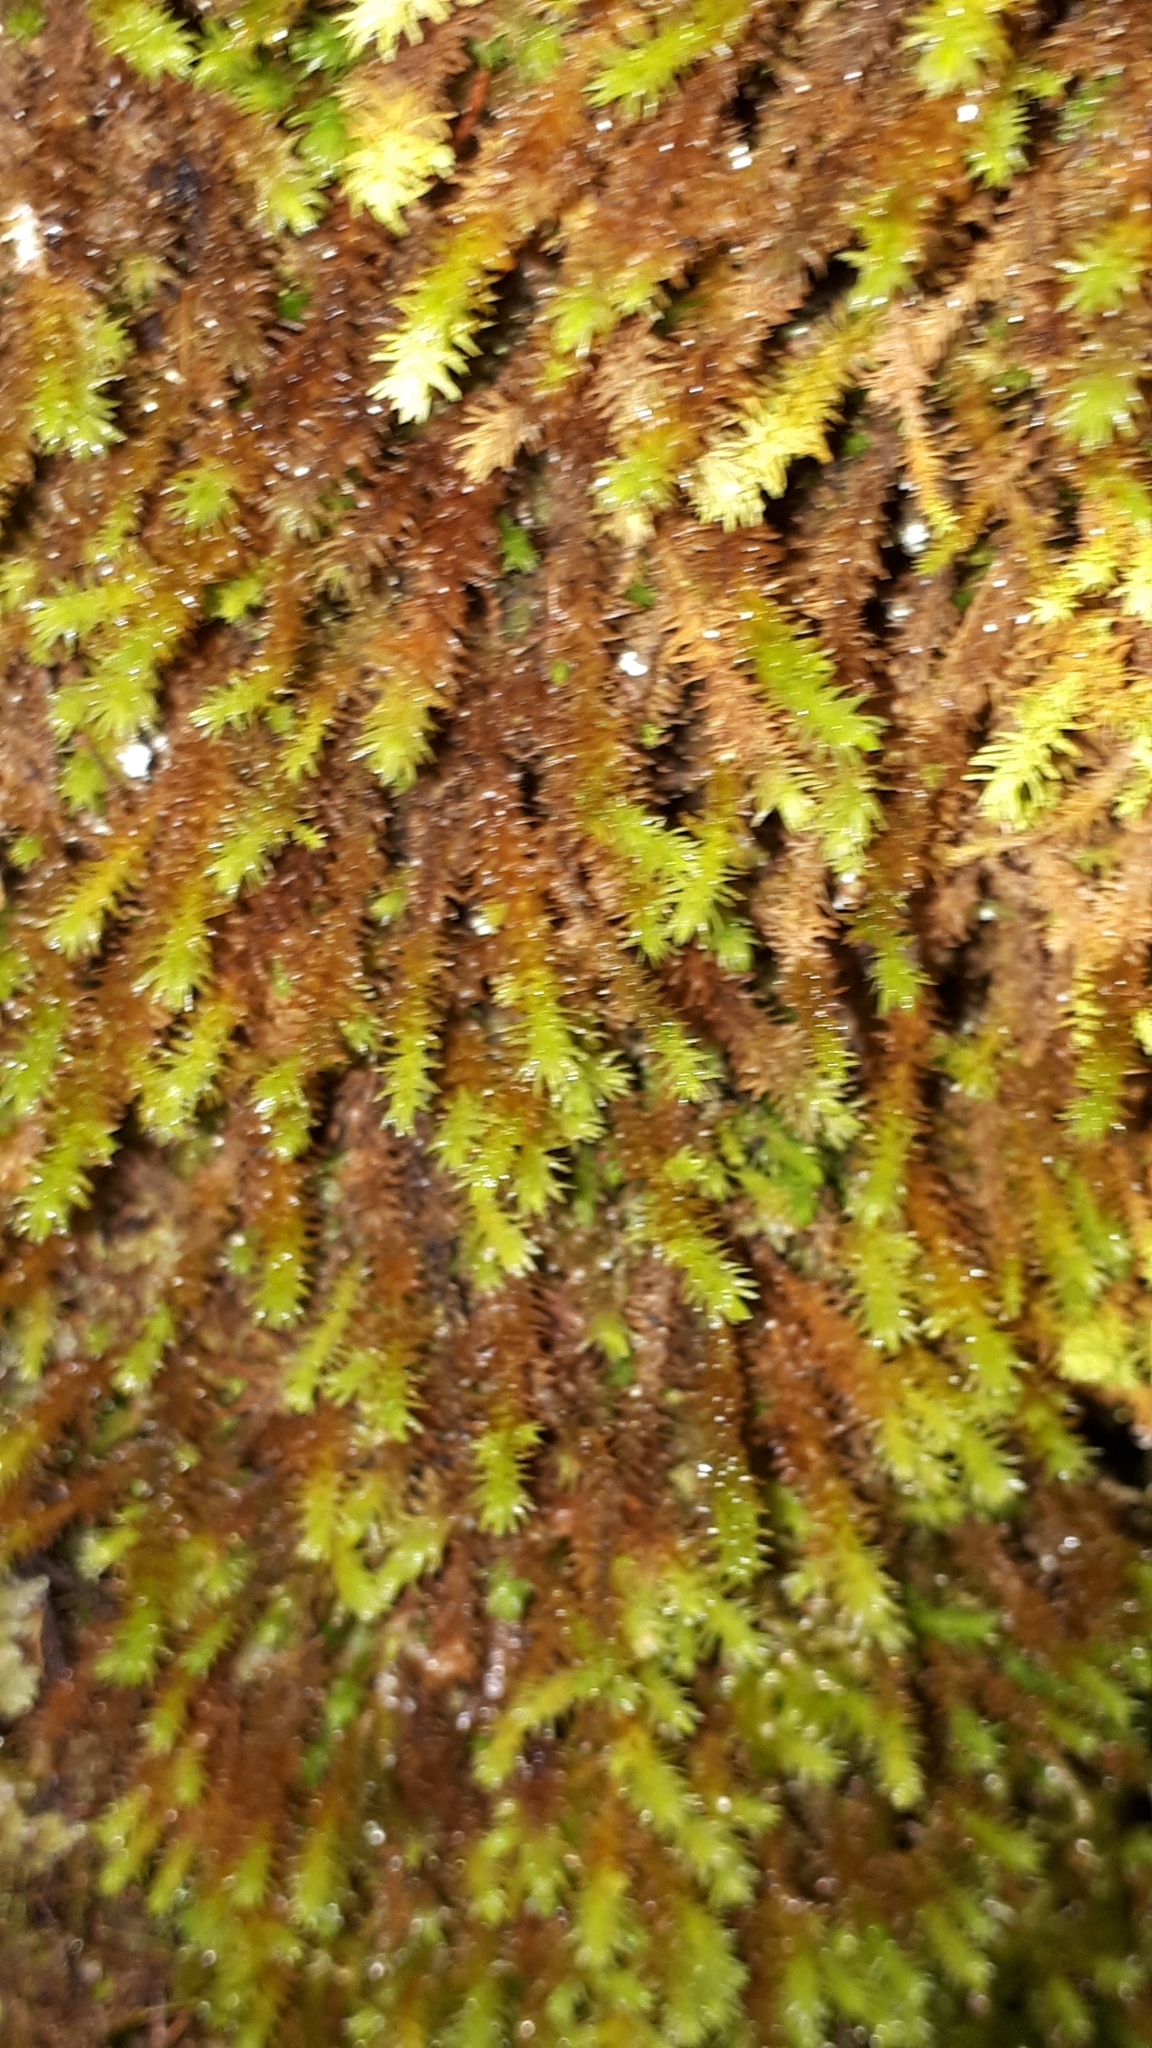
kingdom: Plantae
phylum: Bryophyta
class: Bryopsida
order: Hypnales
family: Anomodontaceae
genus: Anomodon
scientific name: Anomodon viticulosus
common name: Tall anomodon
